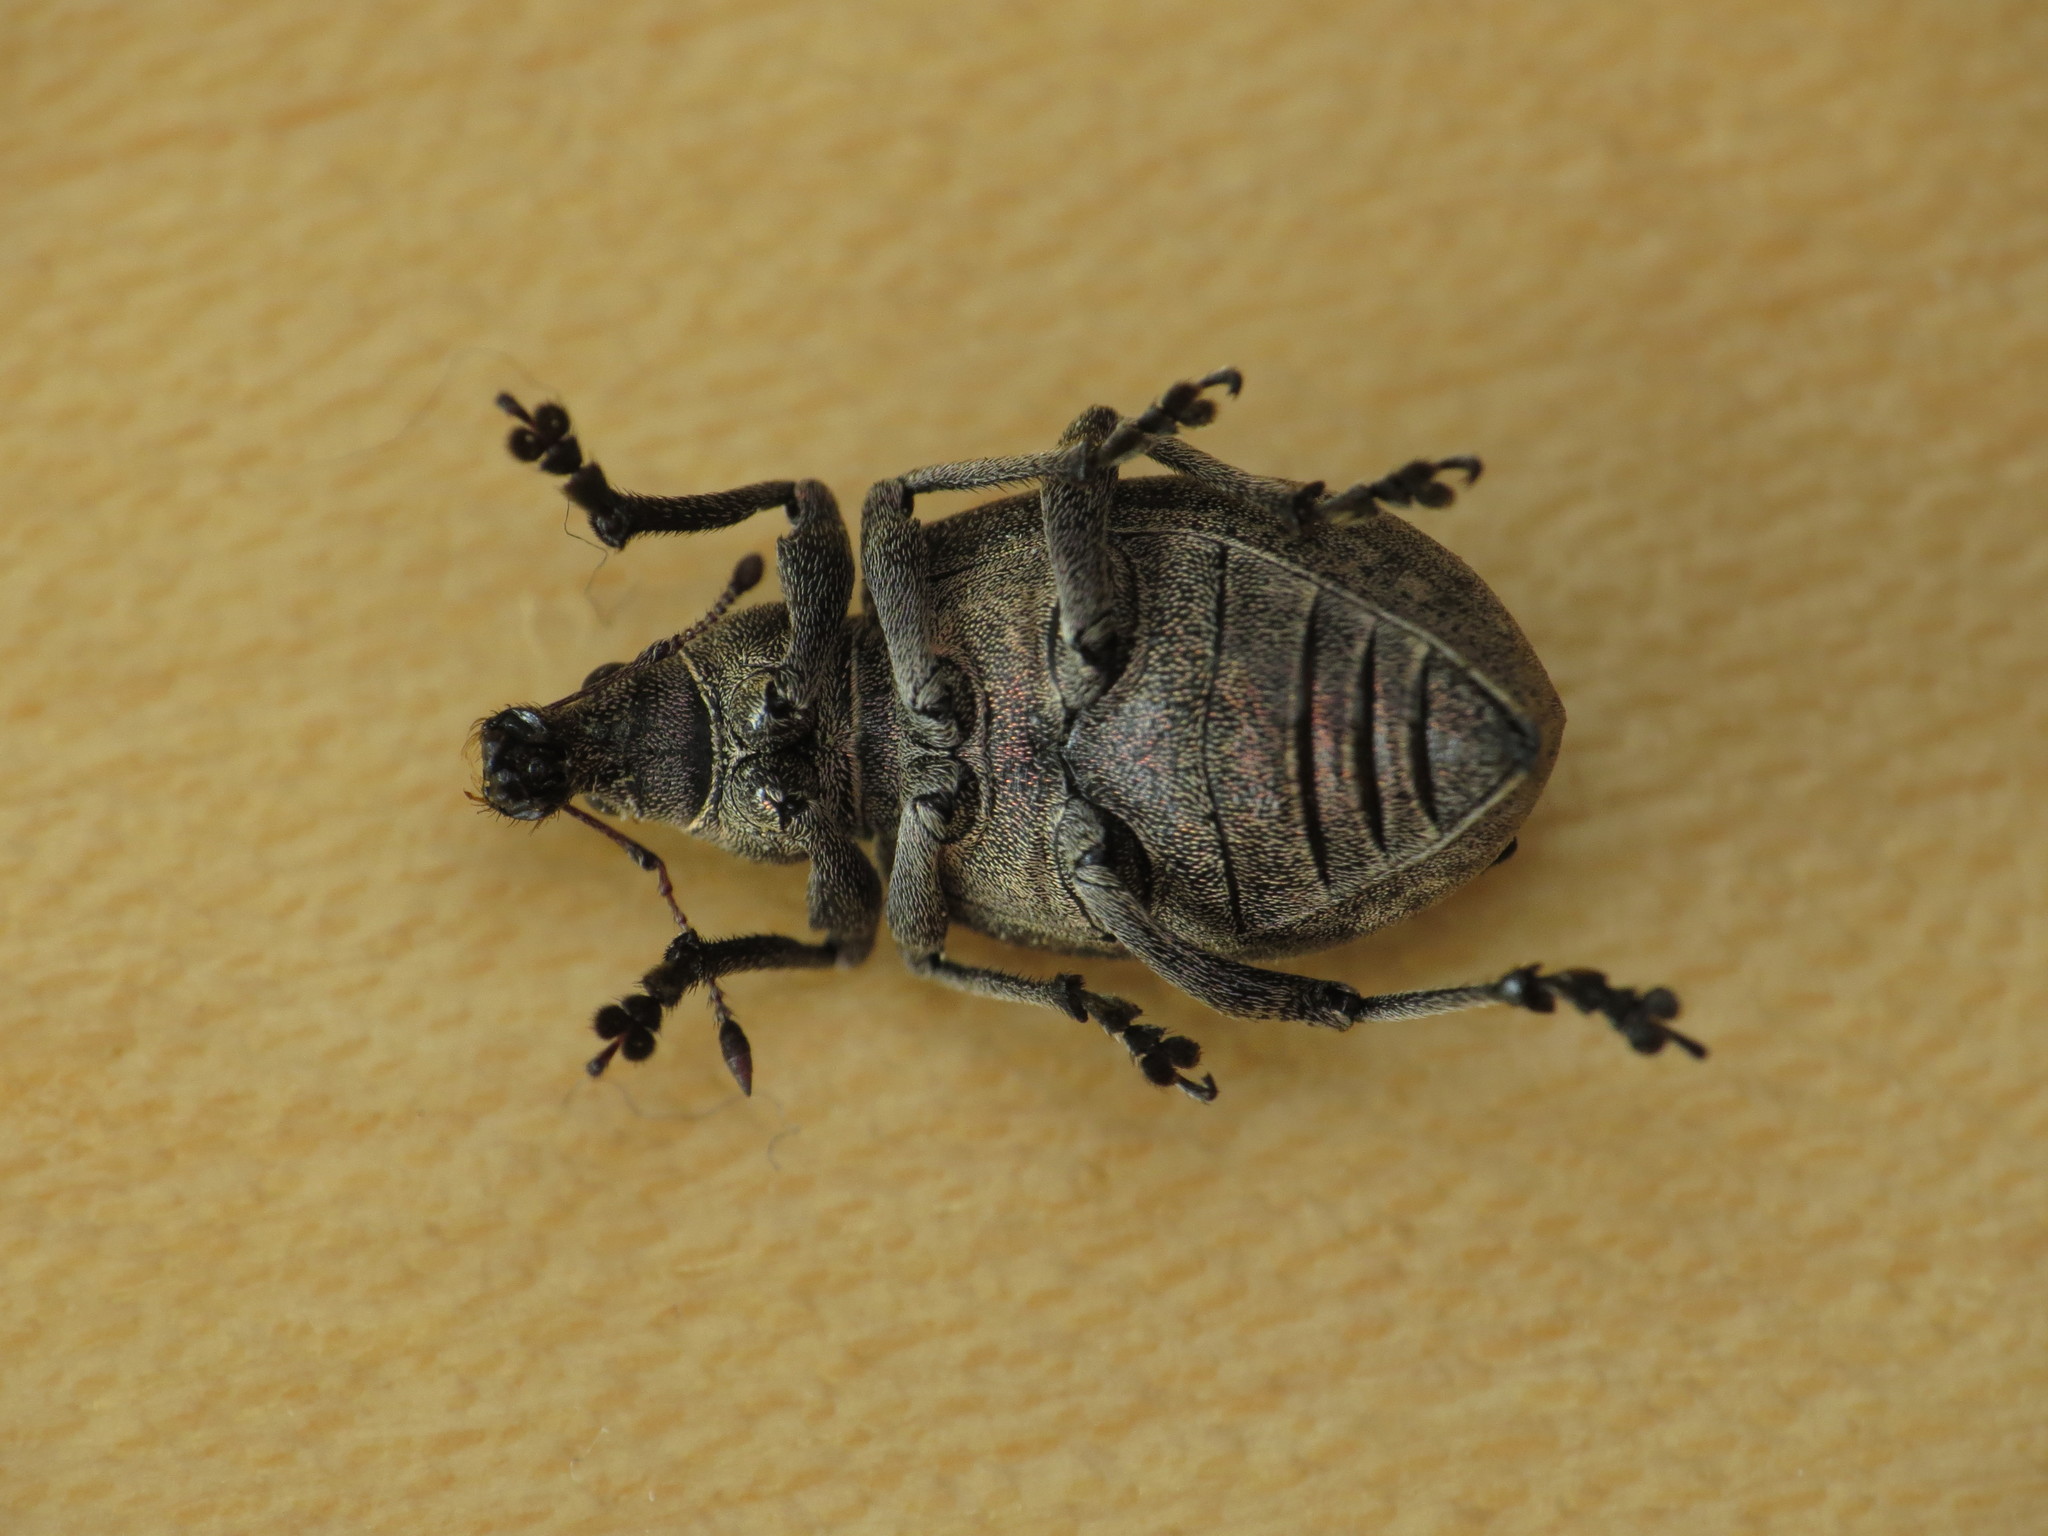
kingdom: Animalia
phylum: Arthropoda
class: Insecta
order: Coleoptera
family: Curculionidae
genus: Liophloeus
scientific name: Liophloeus tessulatus
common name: Weevil
